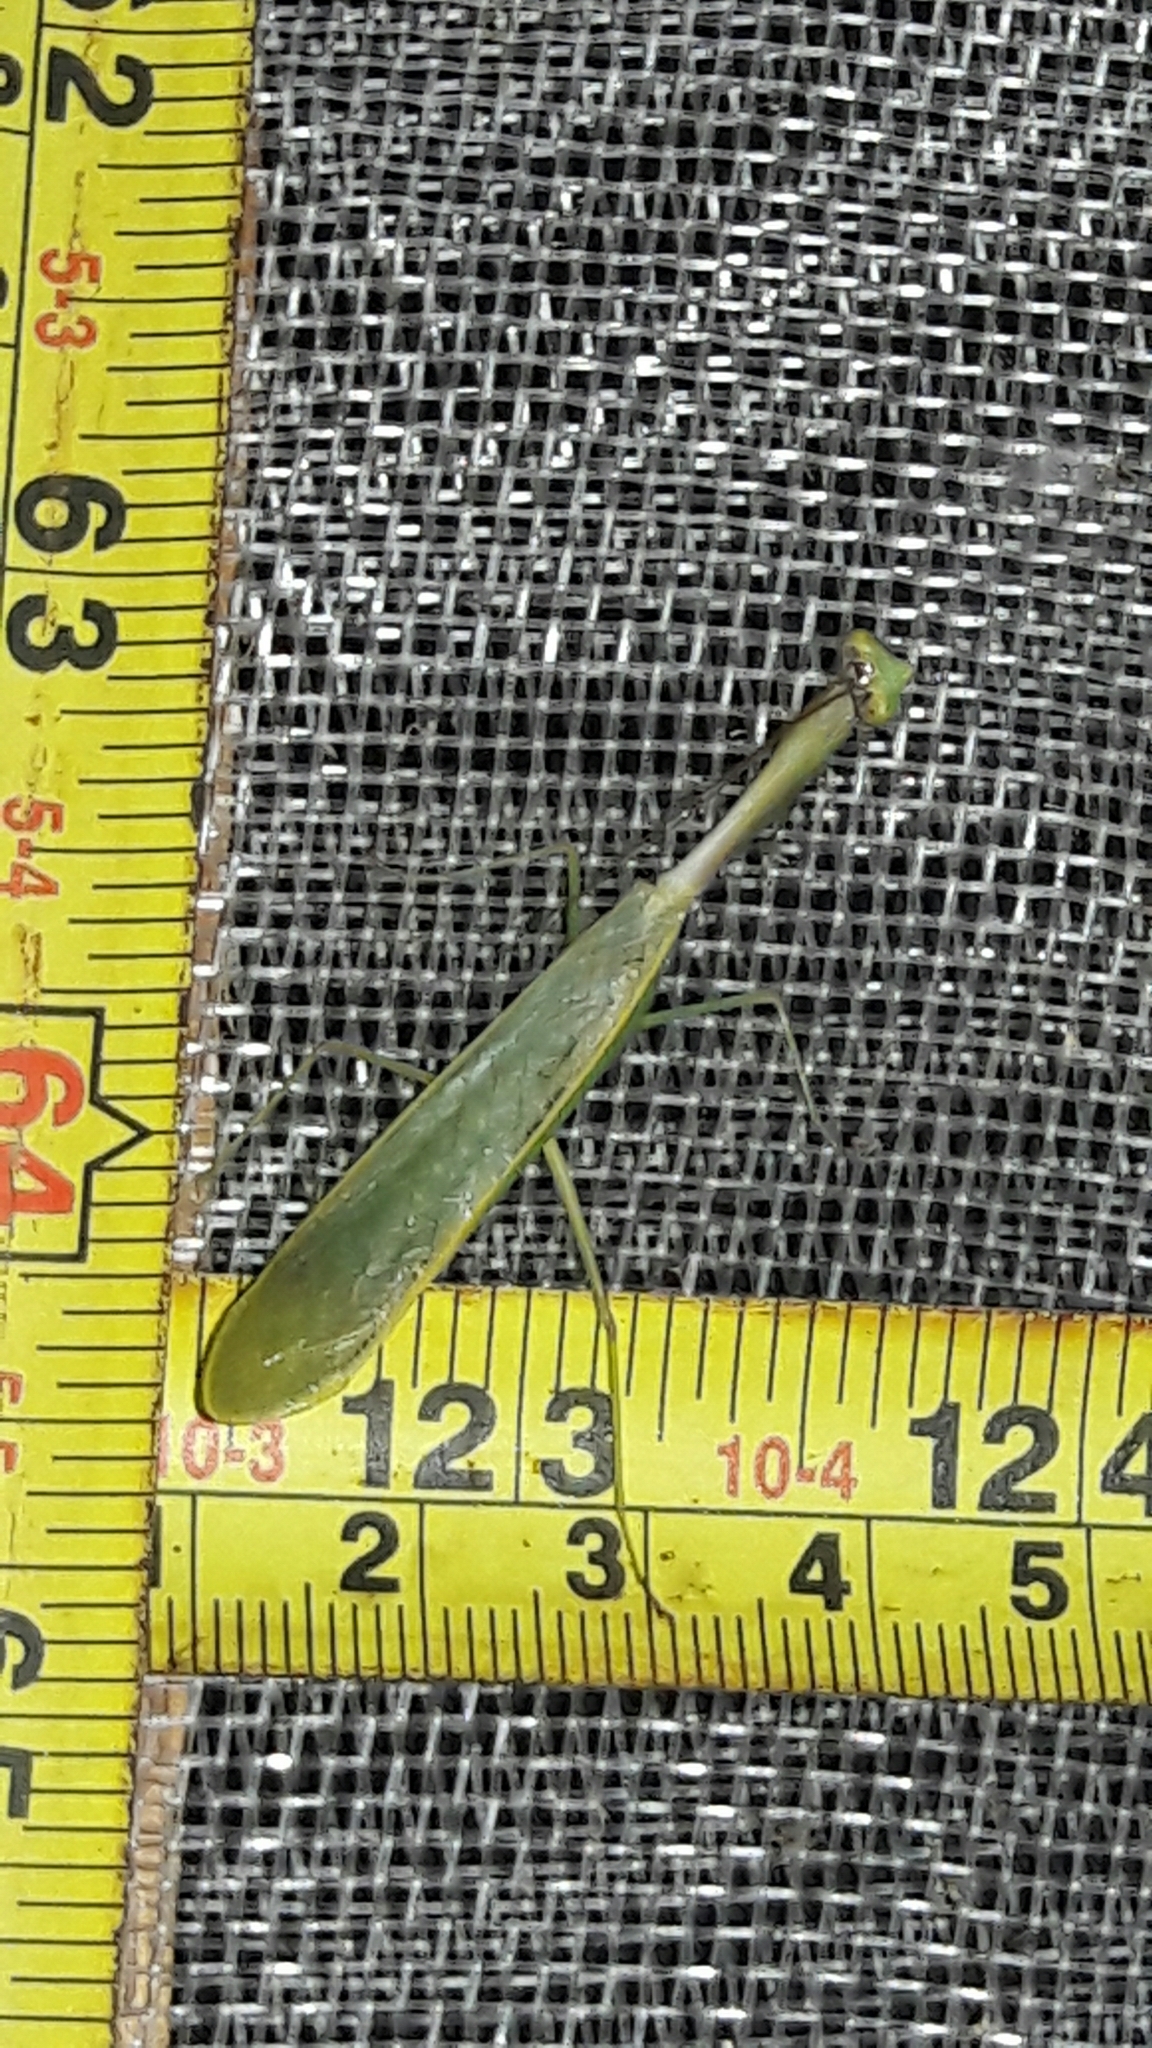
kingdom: Animalia
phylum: Arthropoda
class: Insecta
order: Mantodea
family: Mantidae
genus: Parastagmatoptera
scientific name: Parastagmatoptera
